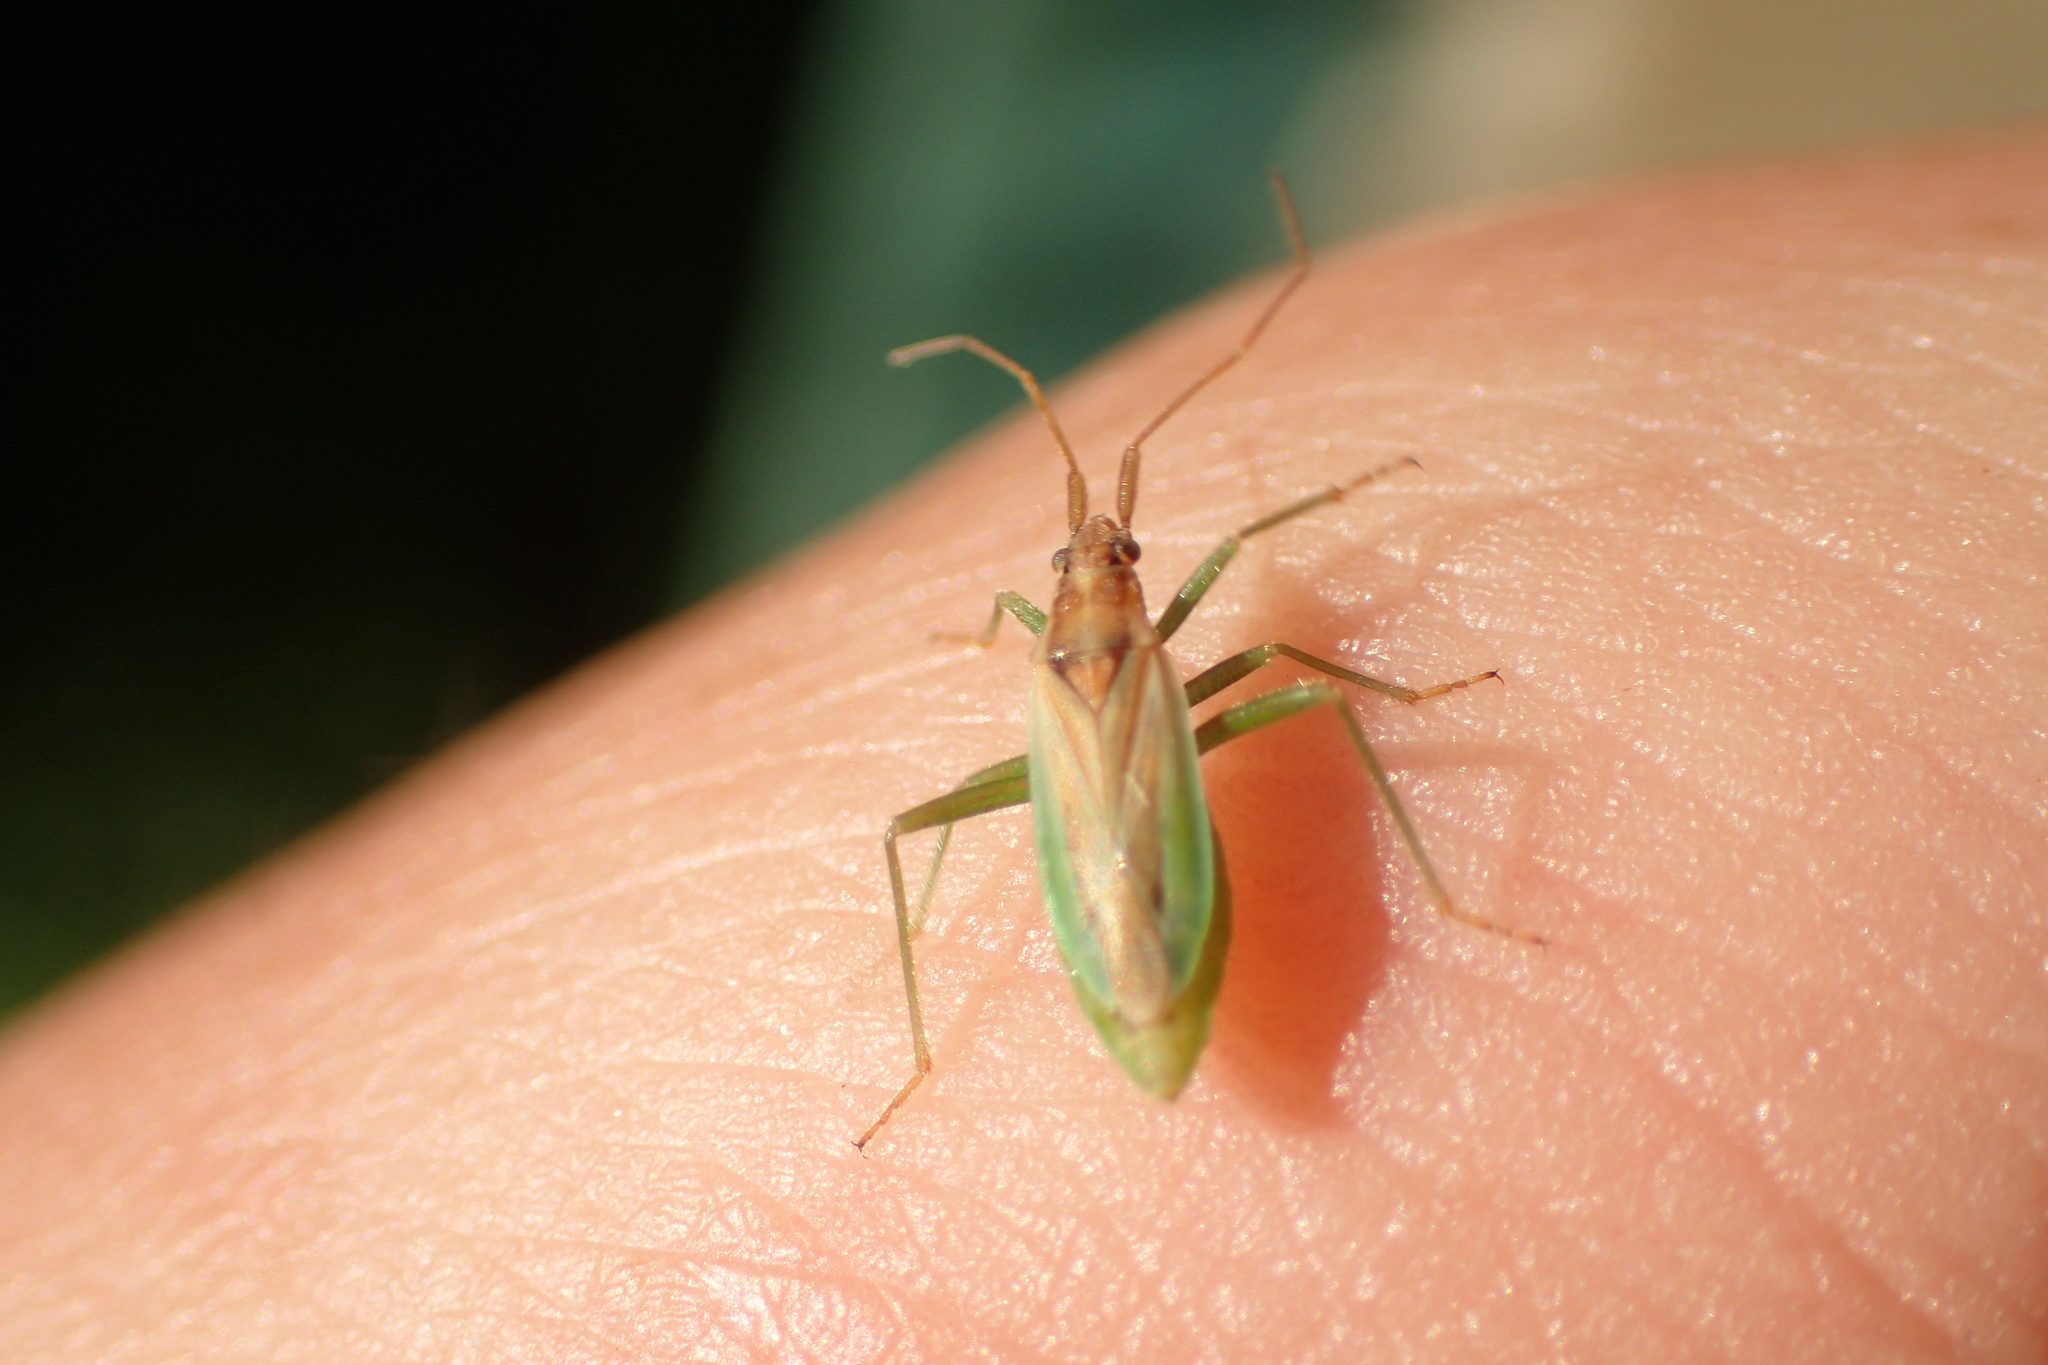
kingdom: Animalia
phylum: Arthropoda
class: Insecta
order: Hemiptera
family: Miridae
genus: Stenodema
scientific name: Stenodema holsata
